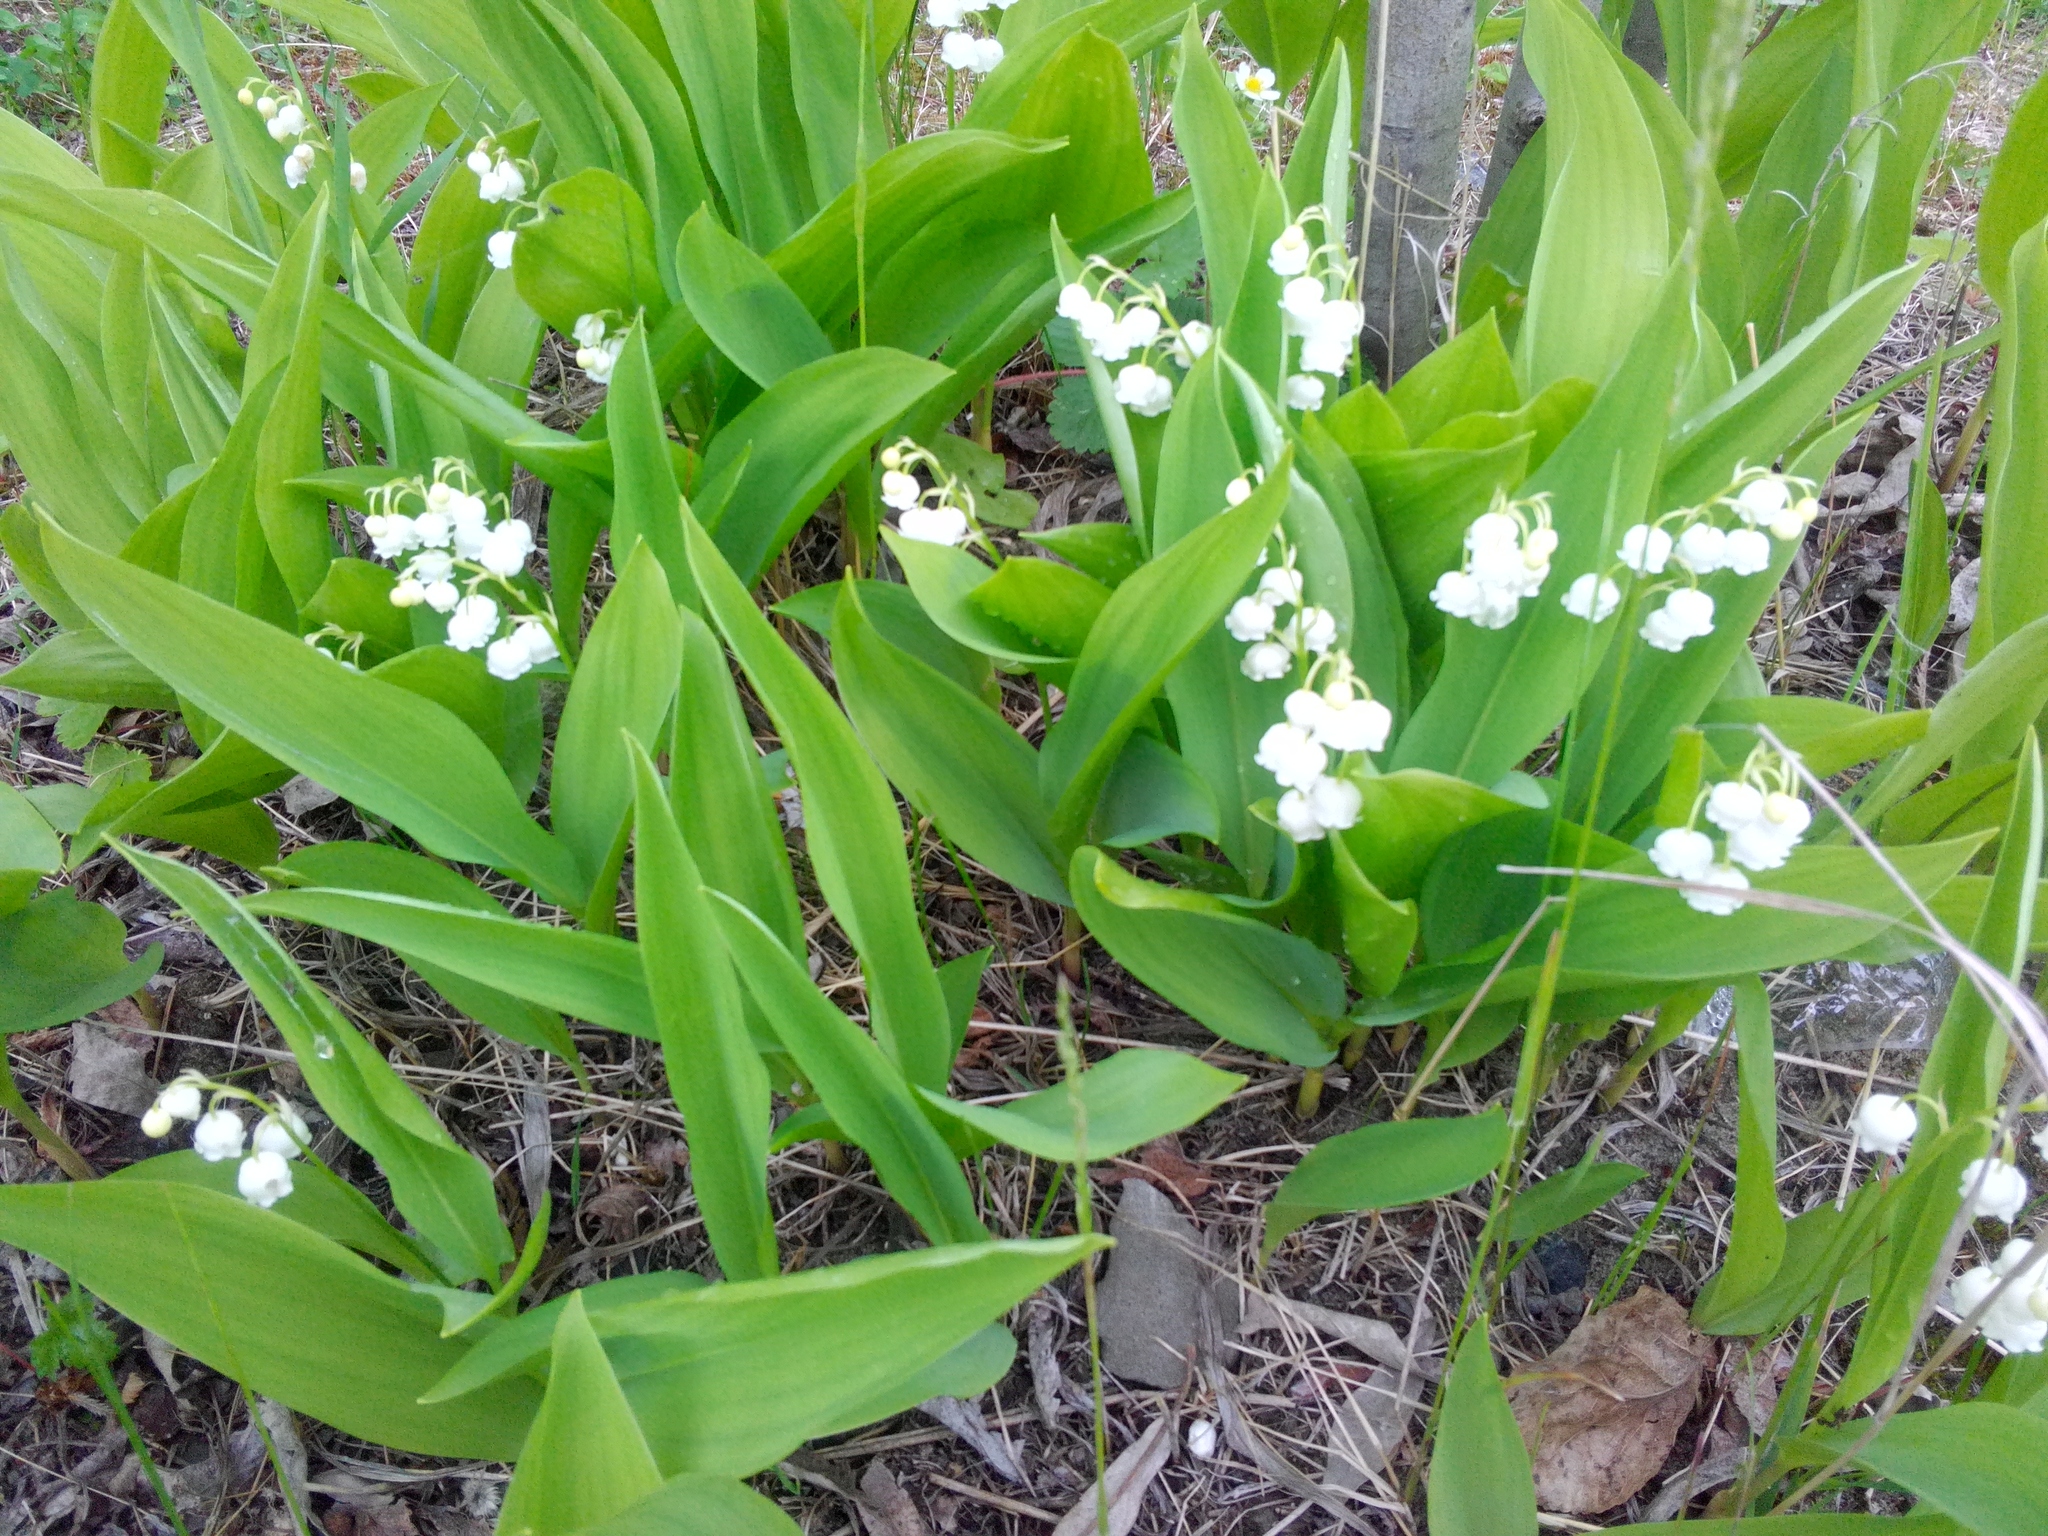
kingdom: Plantae
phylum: Tracheophyta
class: Liliopsida
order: Asparagales
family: Asparagaceae
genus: Convallaria
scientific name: Convallaria majalis
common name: Lily-of-the-valley
